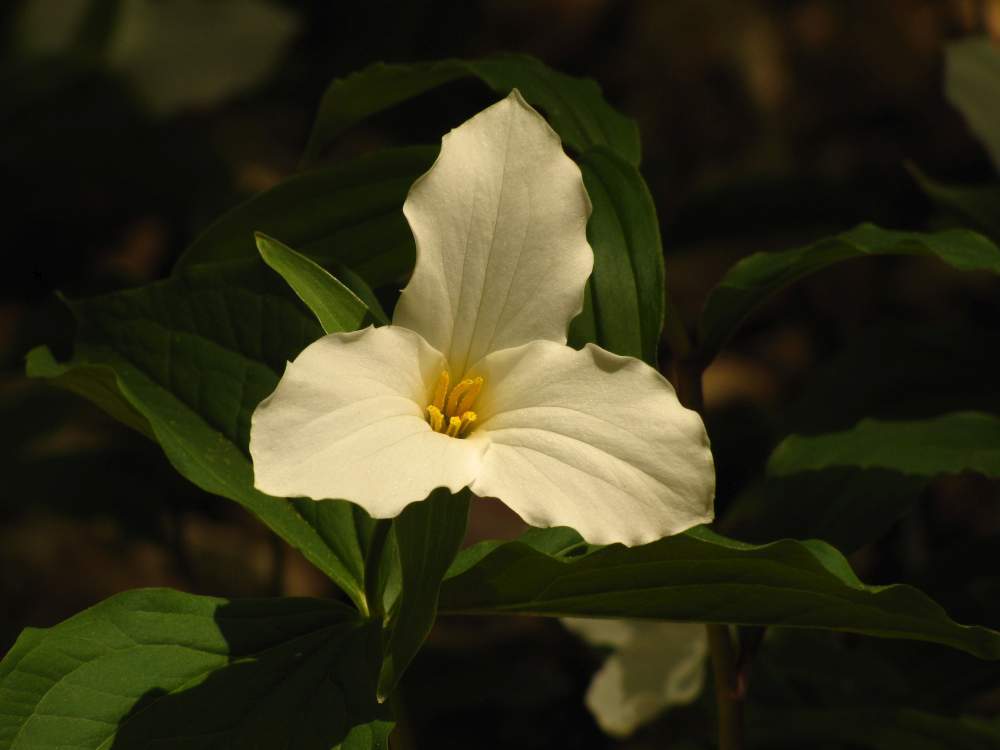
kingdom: Plantae
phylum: Tracheophyta
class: Liliopsida
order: Liliales
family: Melanthiaceae
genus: Trillium
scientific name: Trillium grandiflorum
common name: Great white trillium
